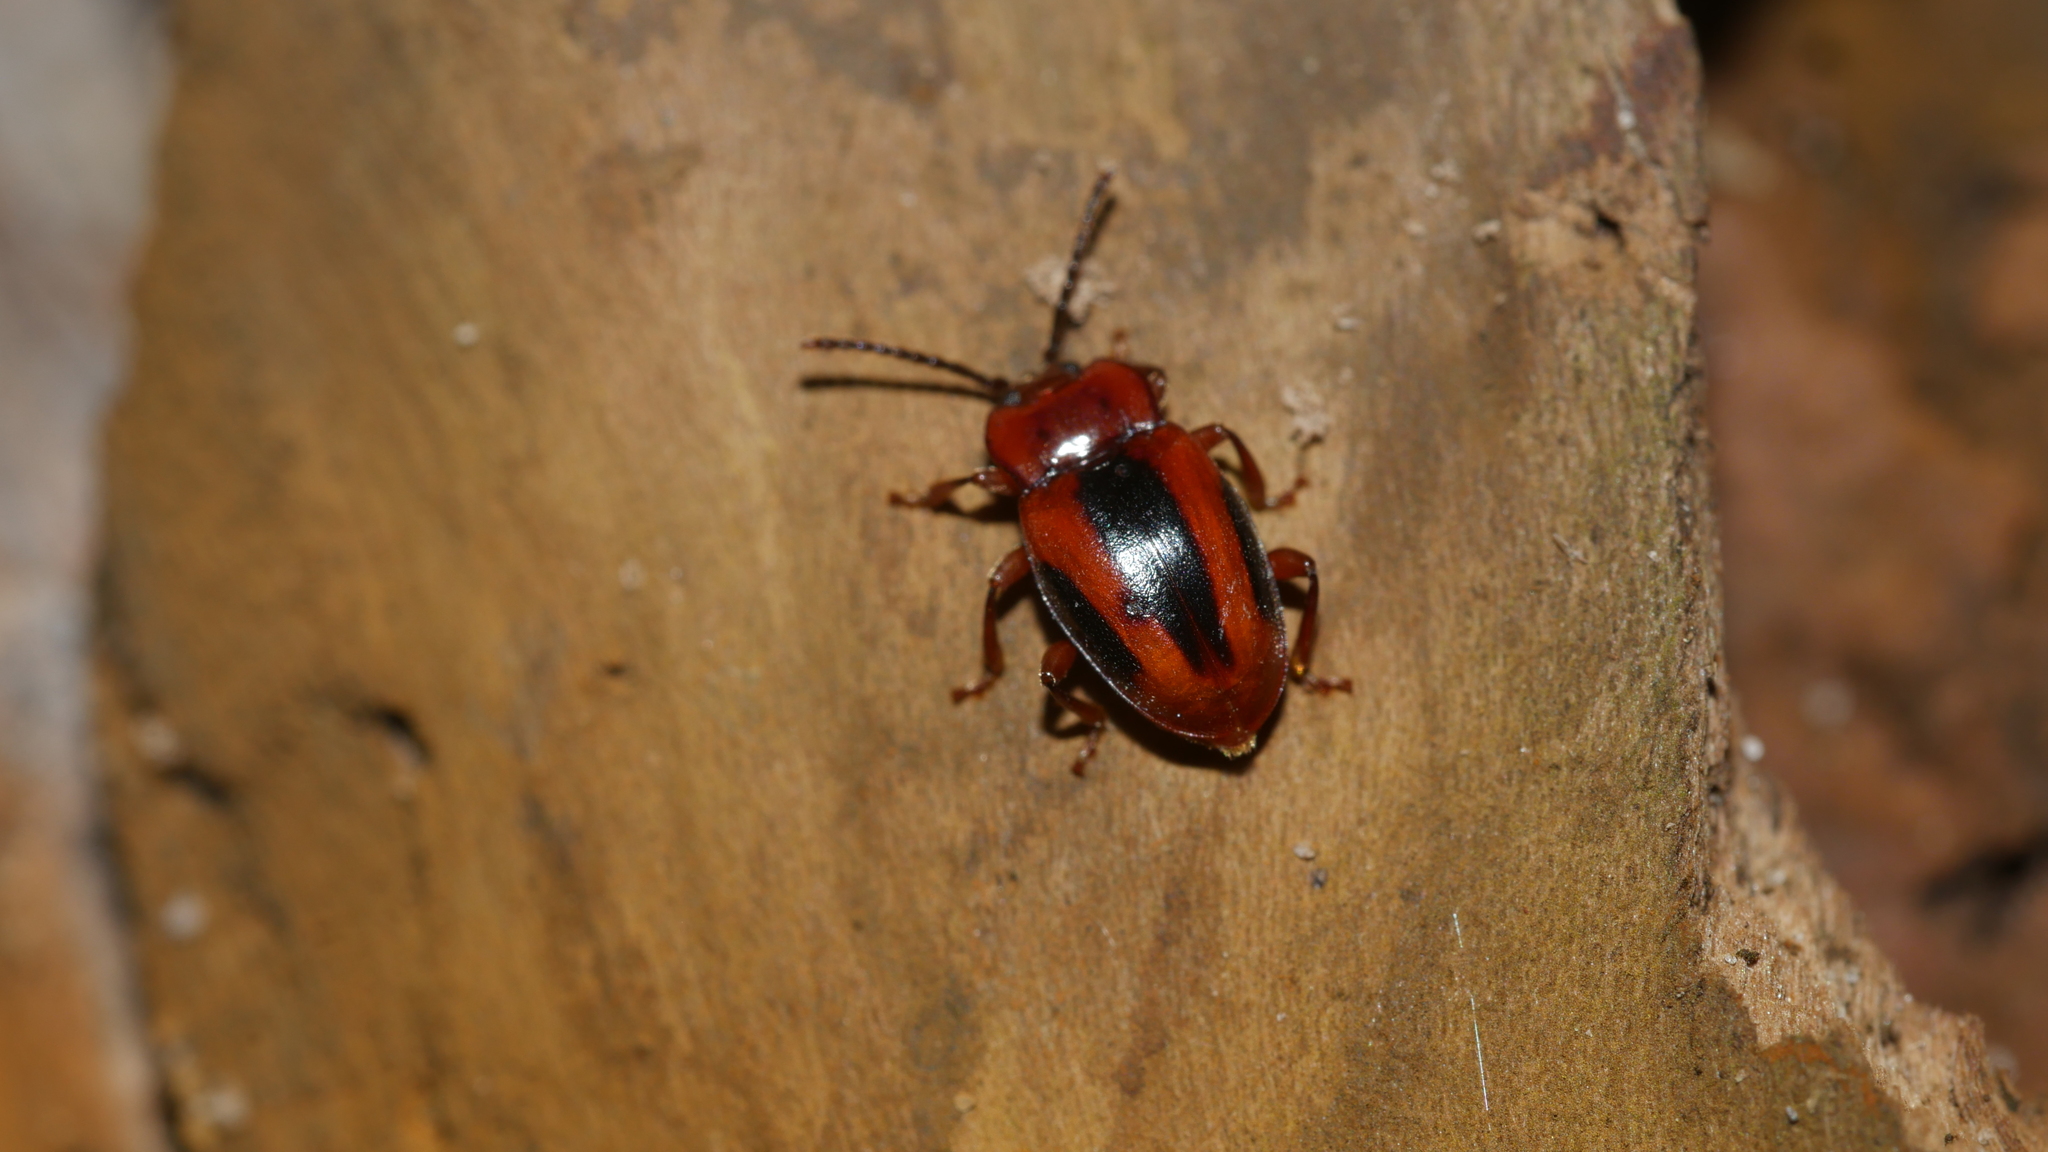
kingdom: Animalia
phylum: Arthropoda
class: Insecta
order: Coleoptera
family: Endomychidae
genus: Aphorista
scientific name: Aphorista vittata
